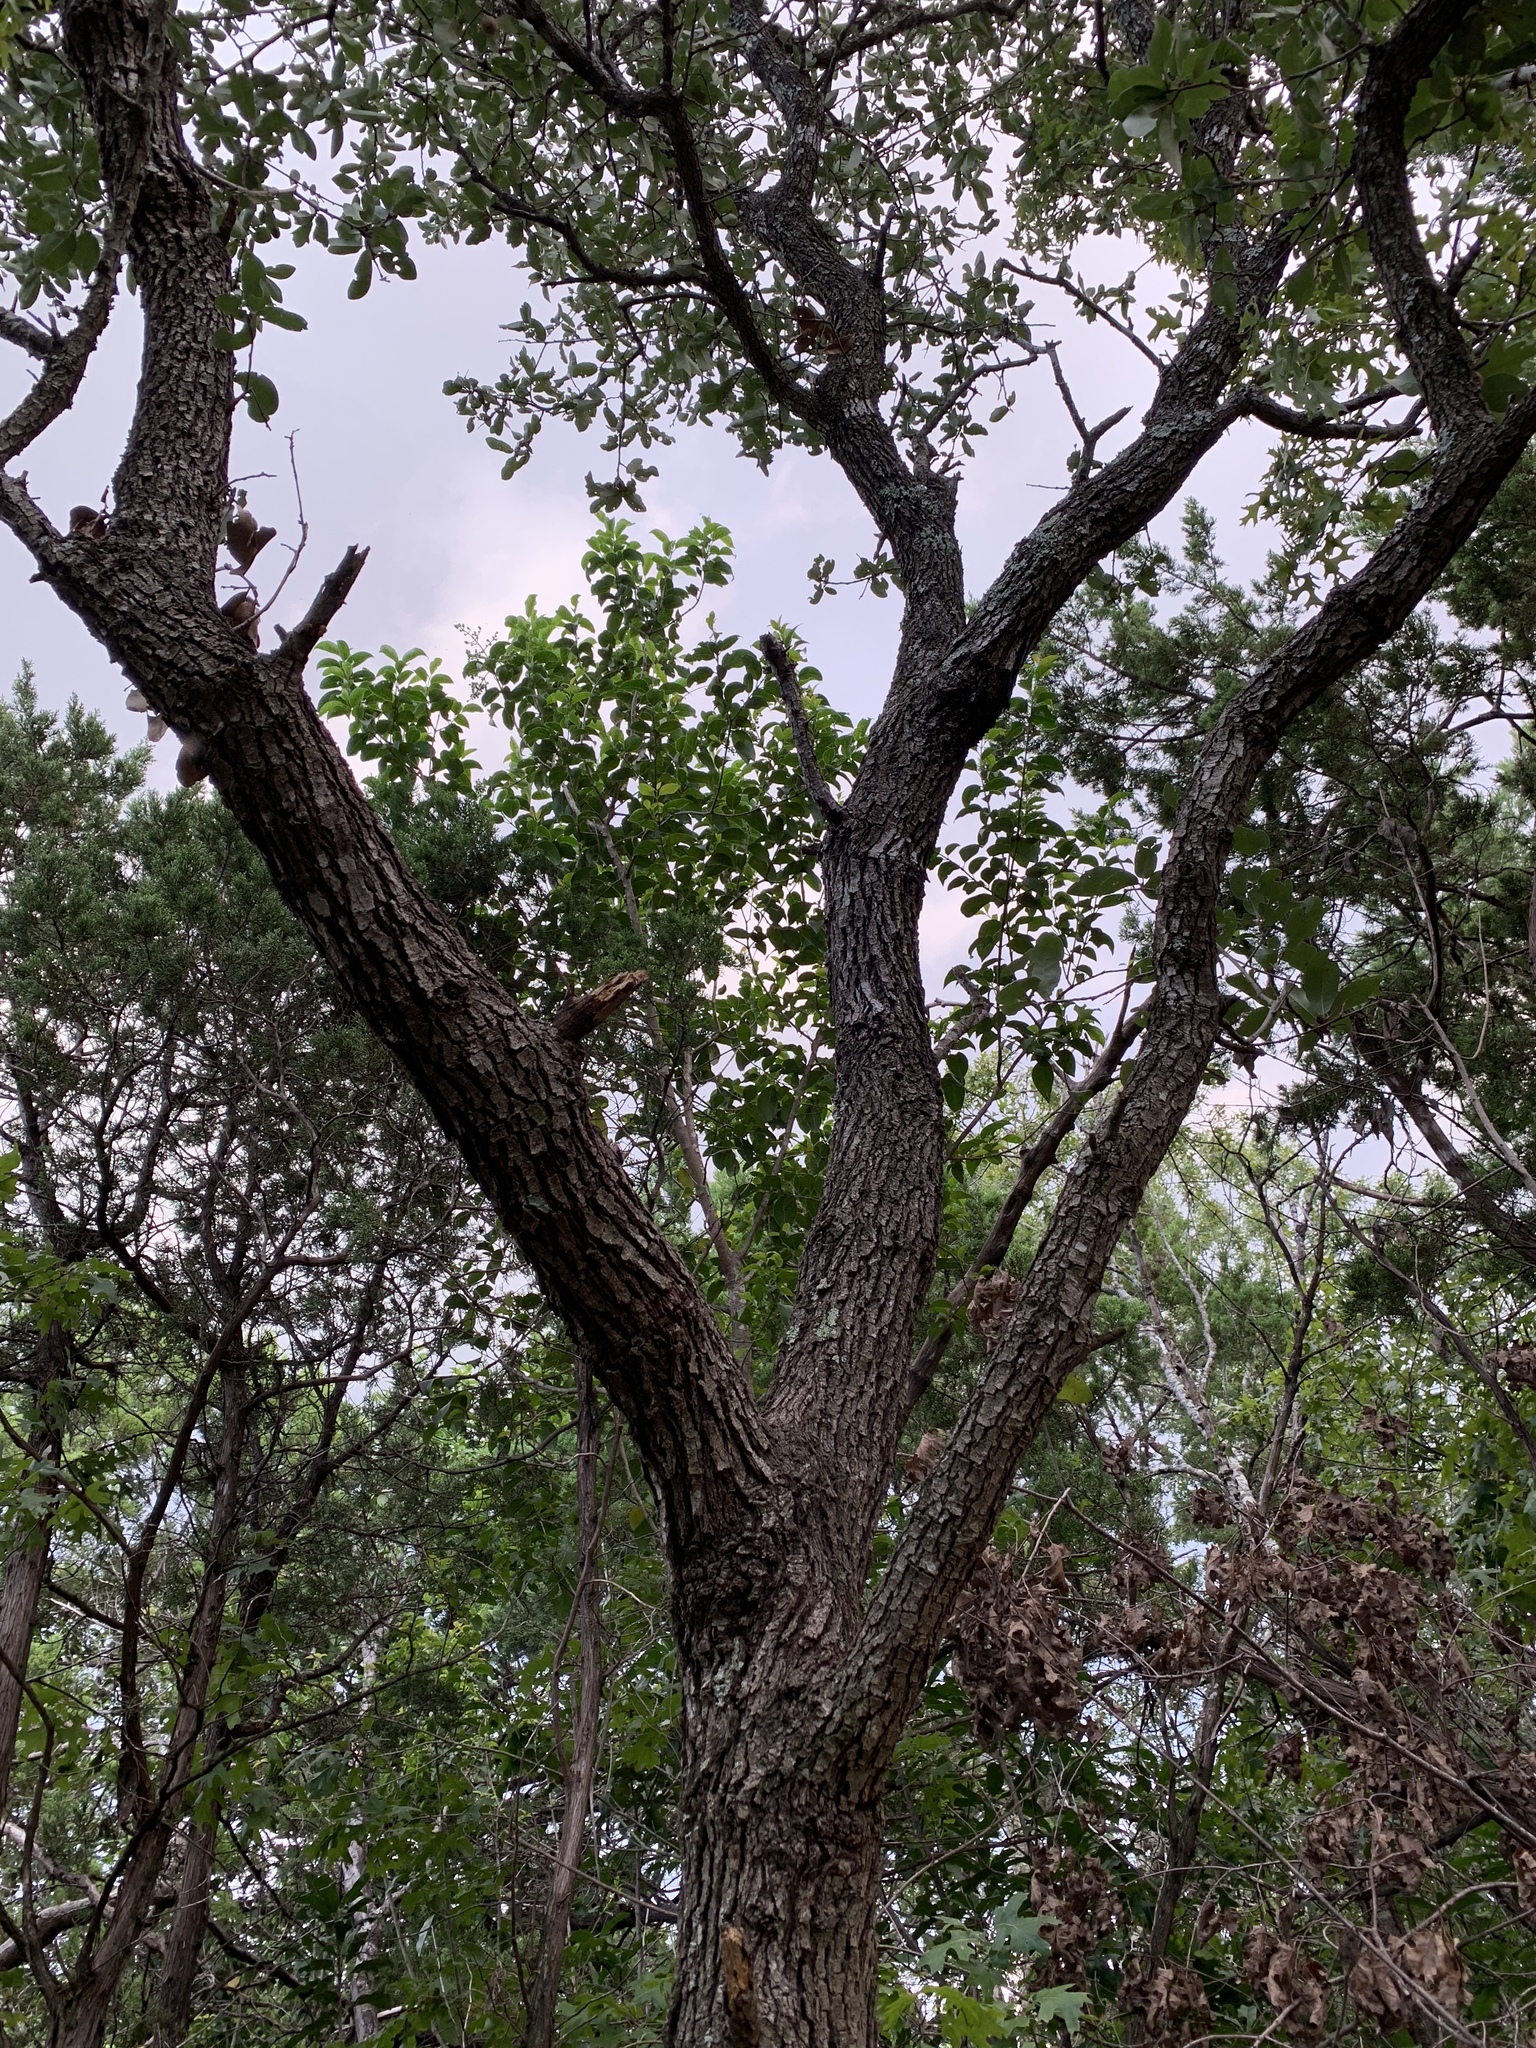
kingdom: Plantae
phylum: Tracheophyta
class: Magnoliopsida
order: Fagales
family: Fagaceae
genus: Quercus
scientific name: Quercus fusiformis
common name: Texas live oak
